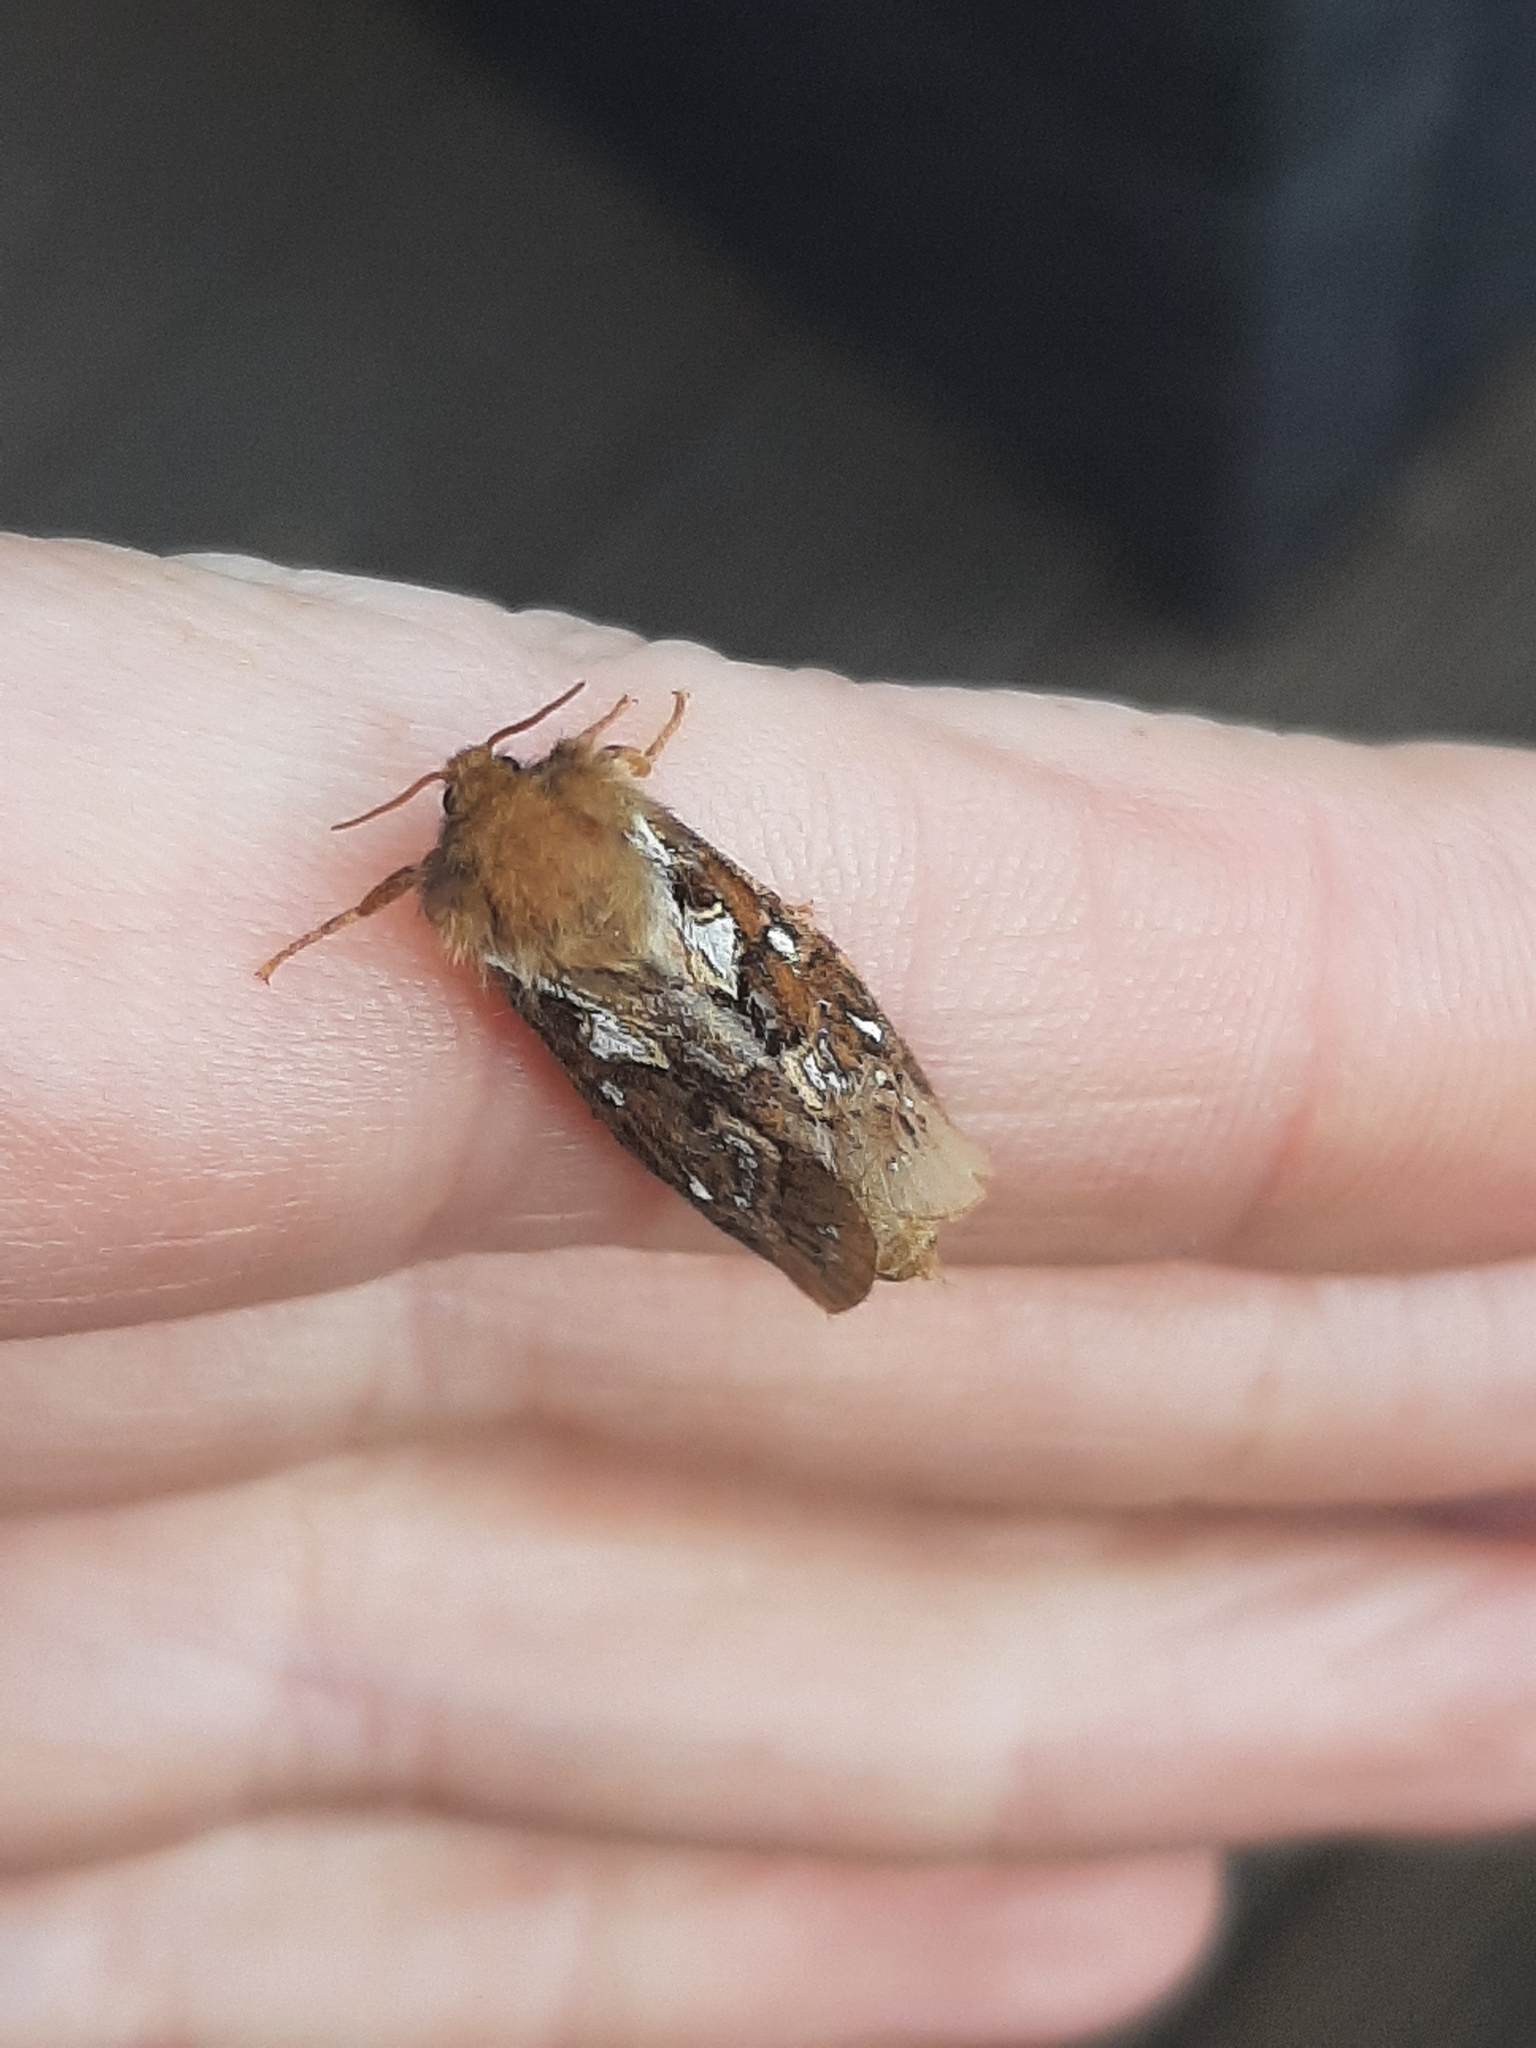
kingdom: Animalia
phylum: Arthropoda
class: Insecta
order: Lepidoptera
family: Hepialidae
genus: Korscheltellus
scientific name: Korscheltellus fusconebulosus
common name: Map-winged swift
